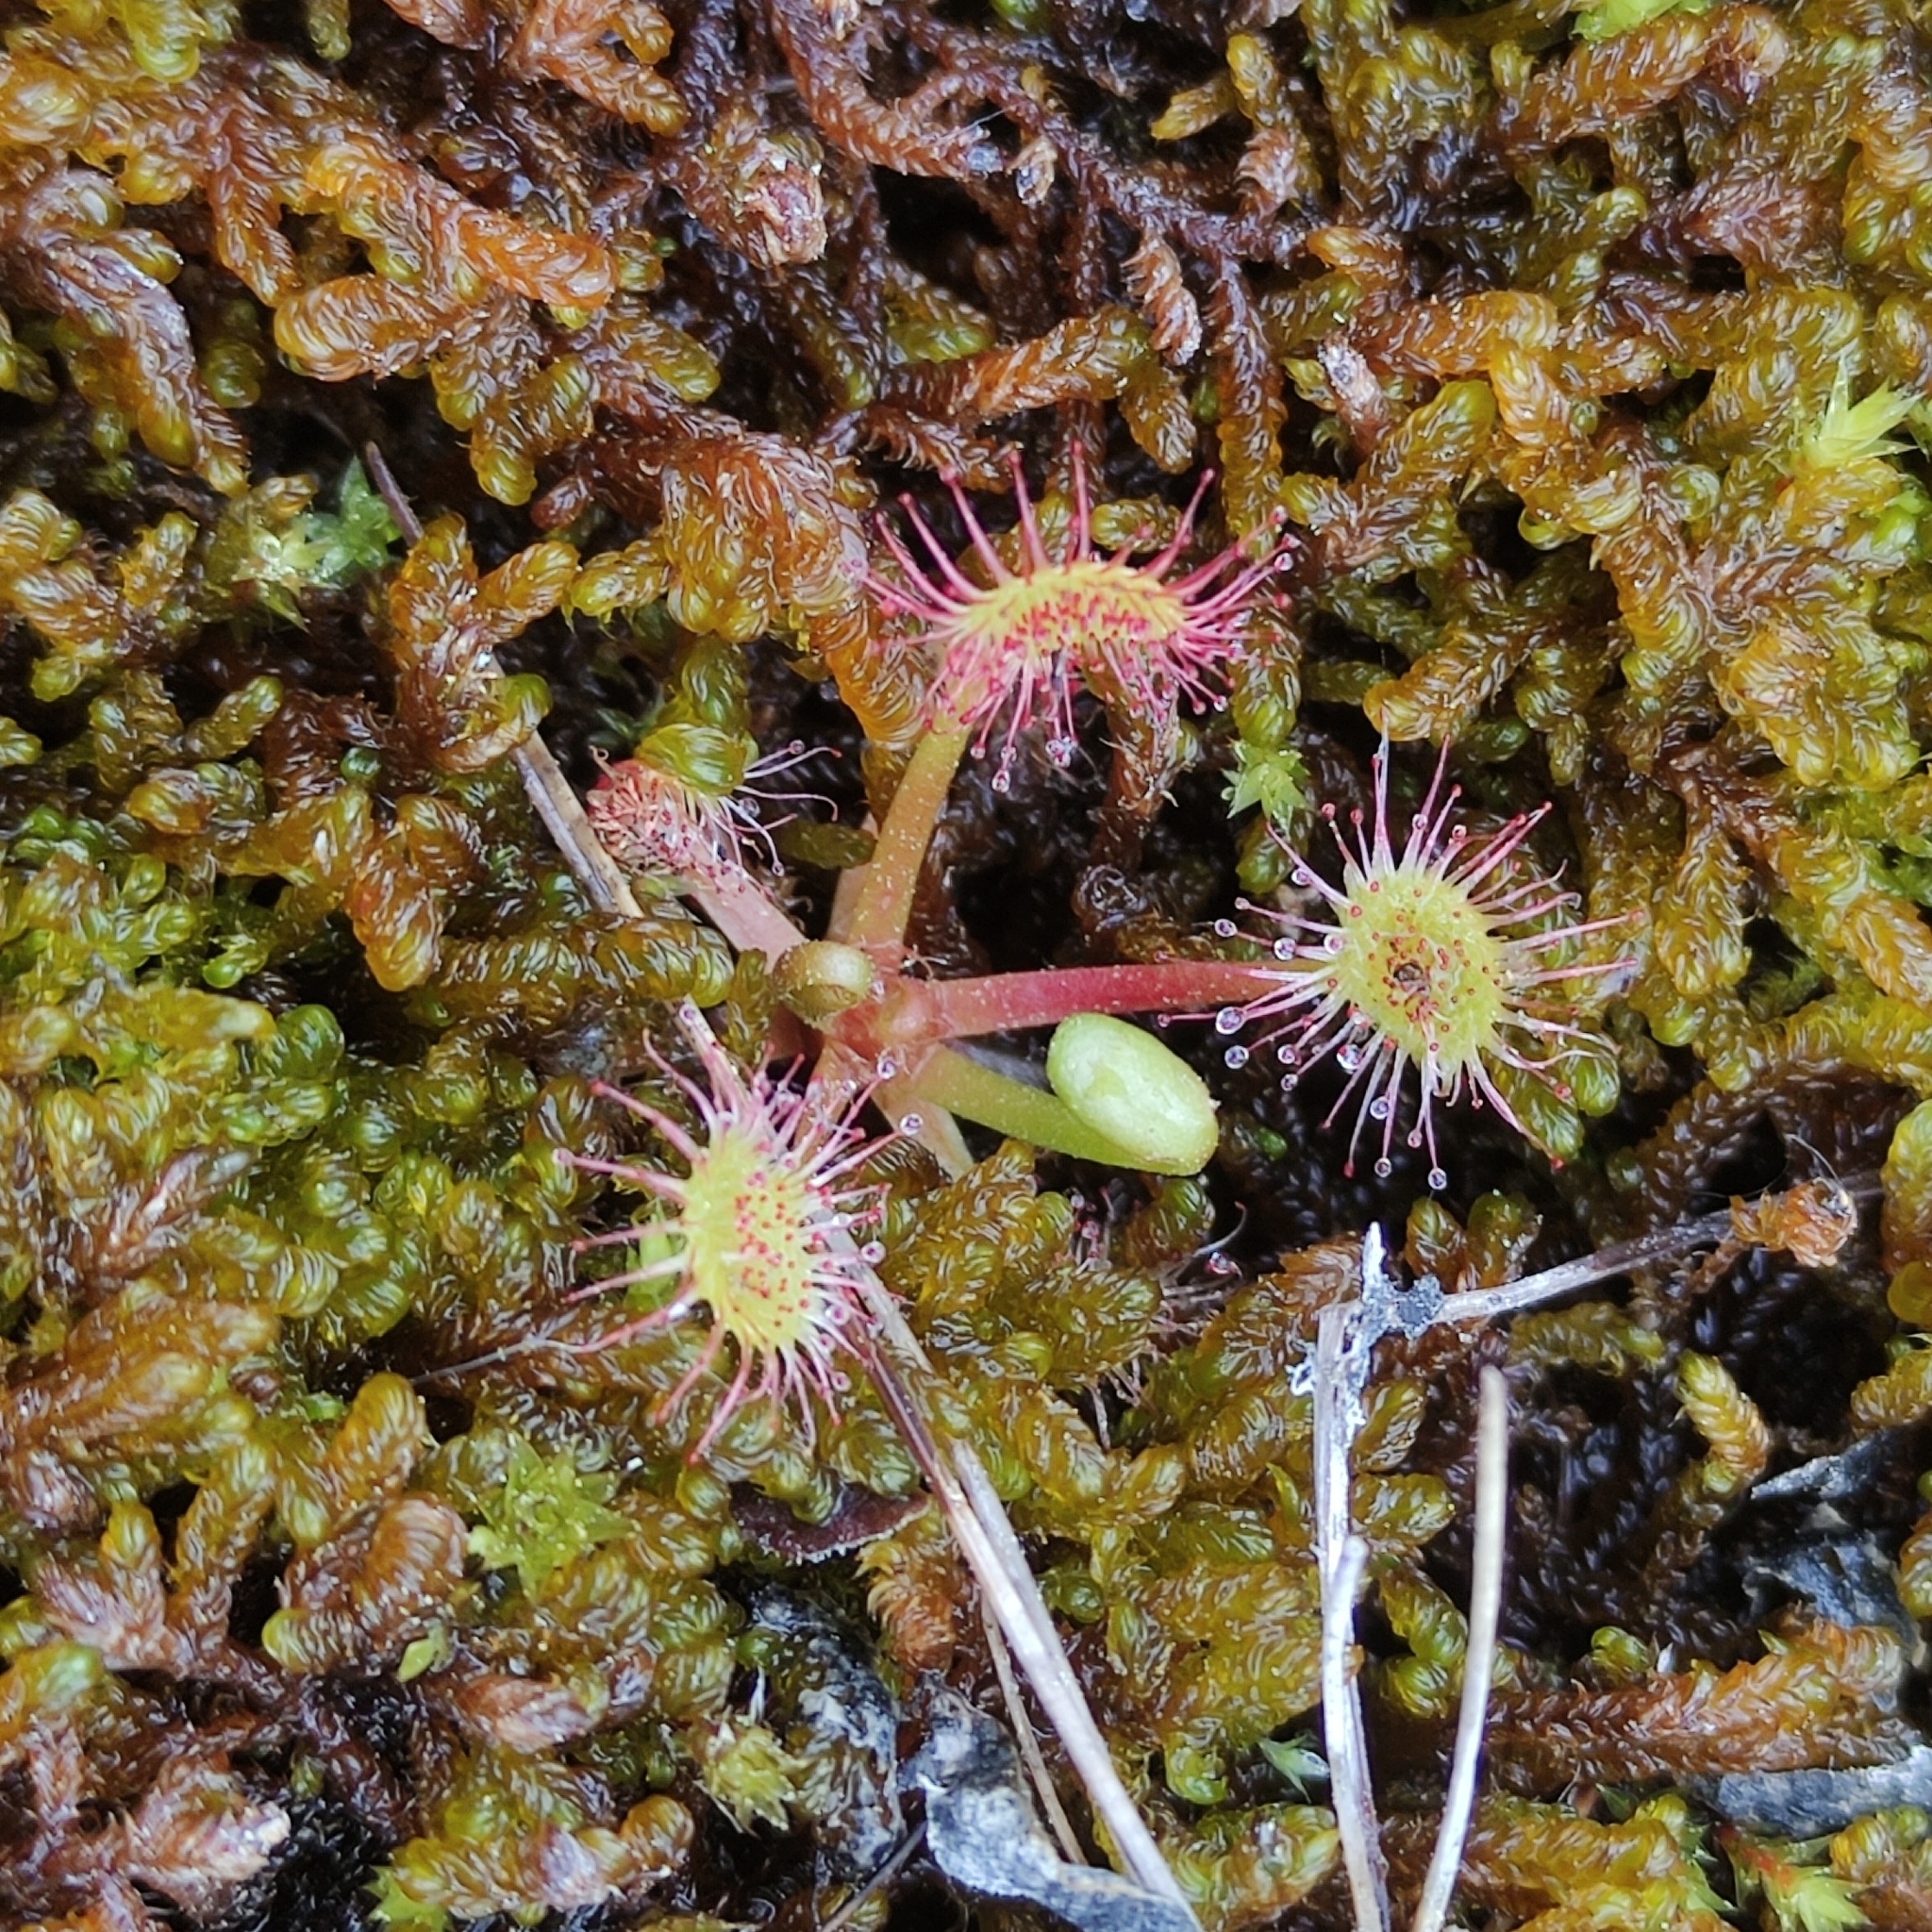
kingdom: Plantae
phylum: Tracheophyta
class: Magnoliopsida
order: Caryophyllales
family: Droseraceae
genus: Drosera
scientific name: Drosera rotundifolia
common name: Round-leaved sundew
